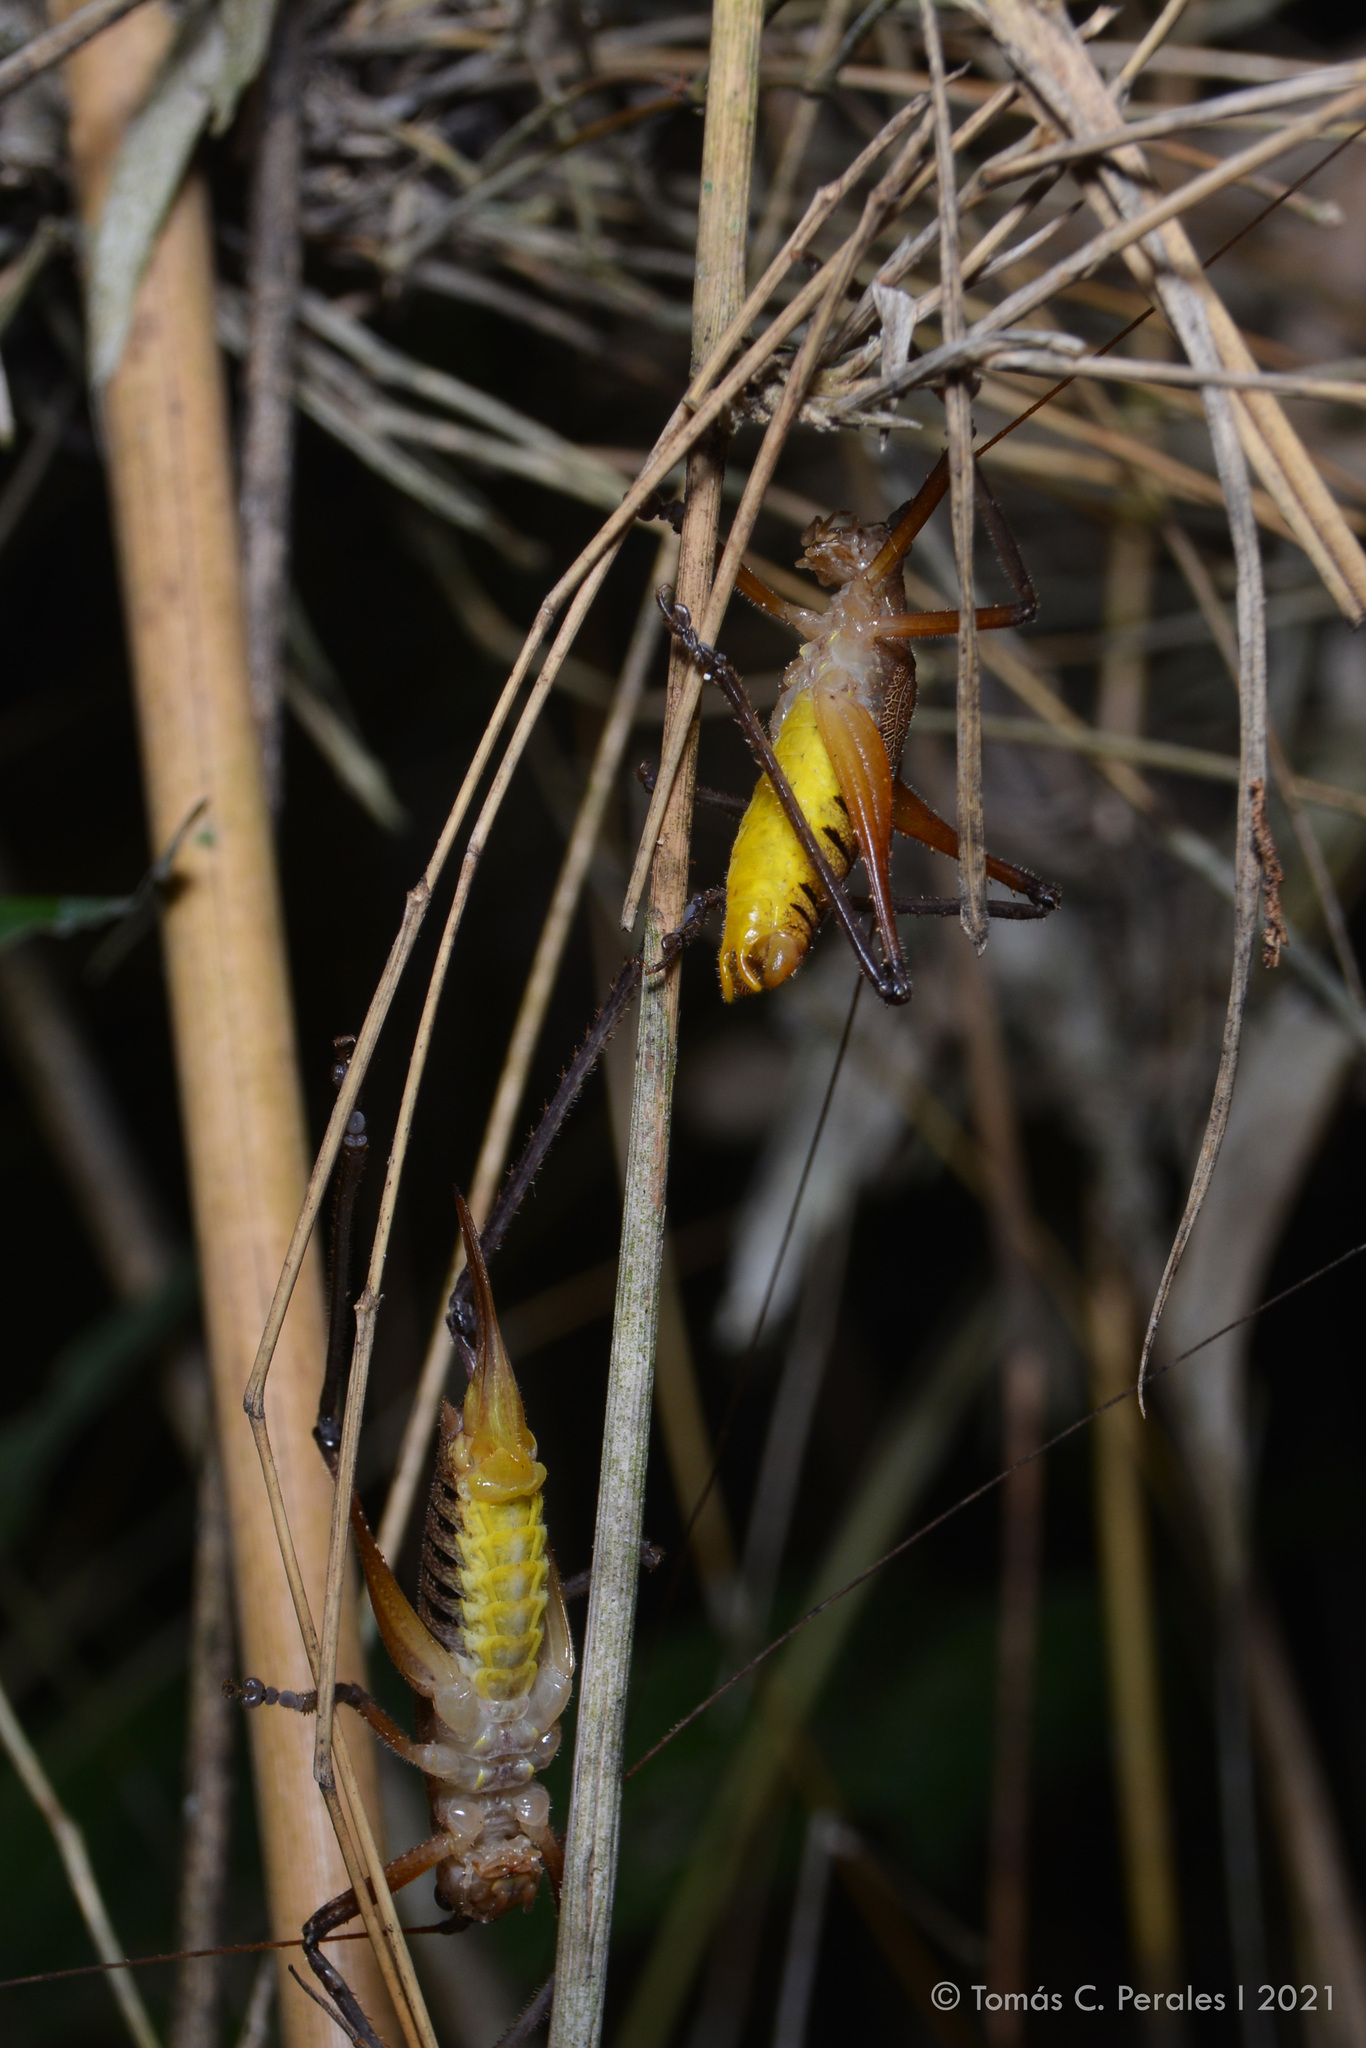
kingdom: Animalia
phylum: Arthropoda
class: Insecta
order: Orthoptera
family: Tettigoniidae
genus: Brachyteleutias
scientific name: Brachyteleutias bilineatus
